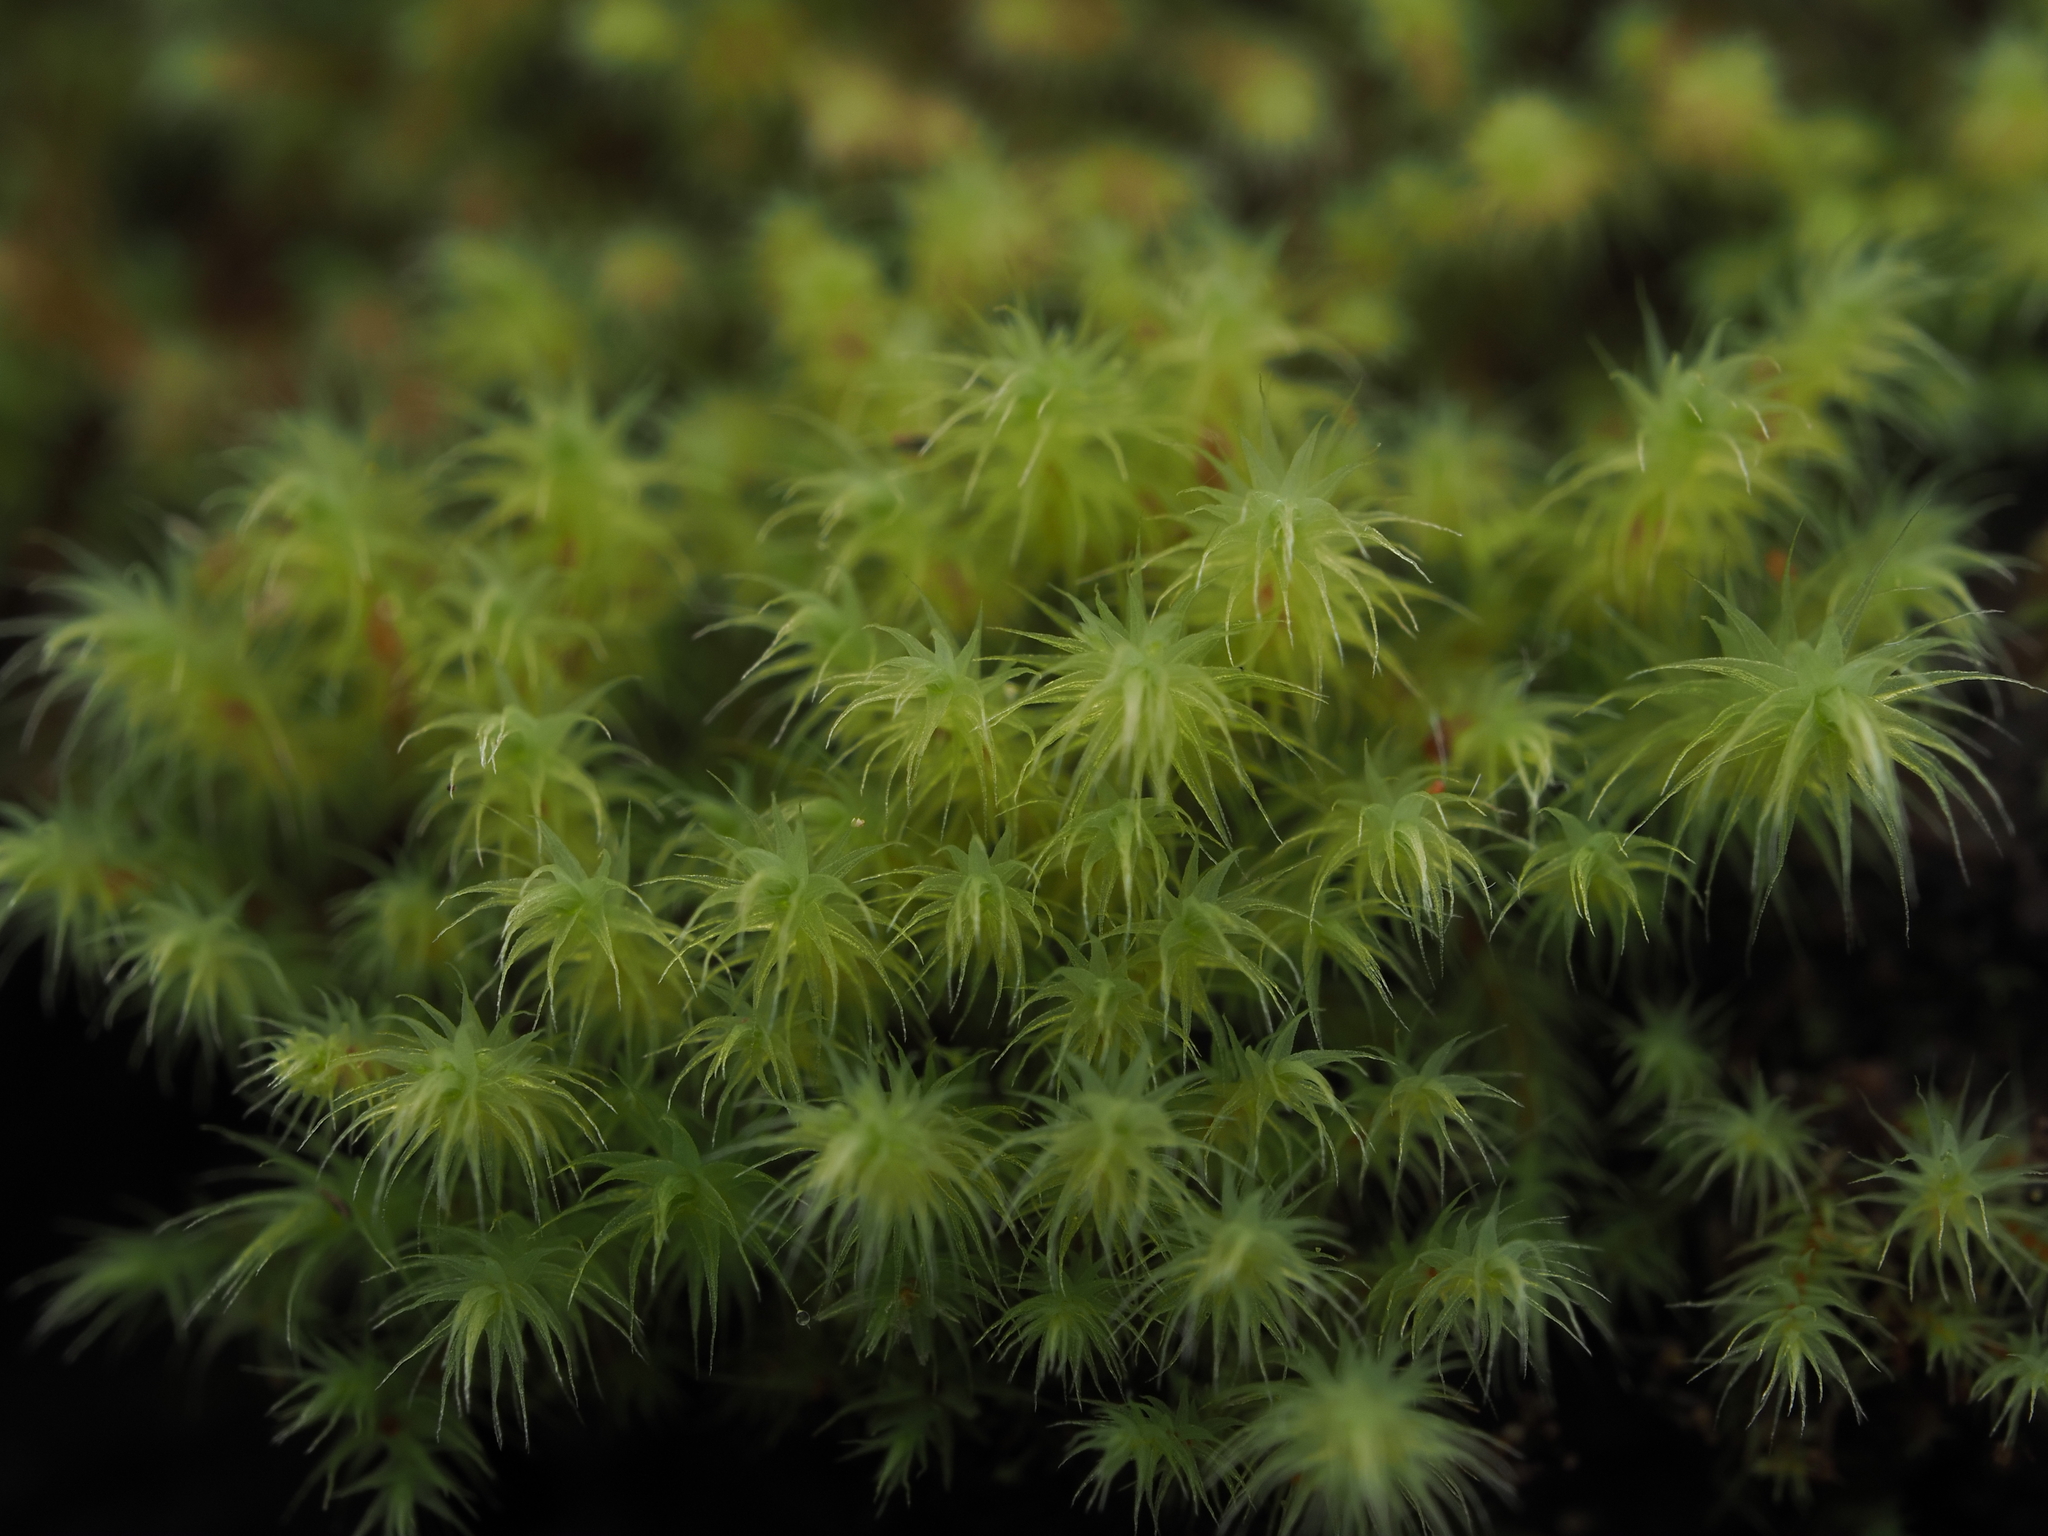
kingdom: Plantae
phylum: Bryophyta
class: Bryopsida
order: Bartramiales
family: Bartramiaceae
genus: Philonotis
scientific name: Philonotis tenuis
